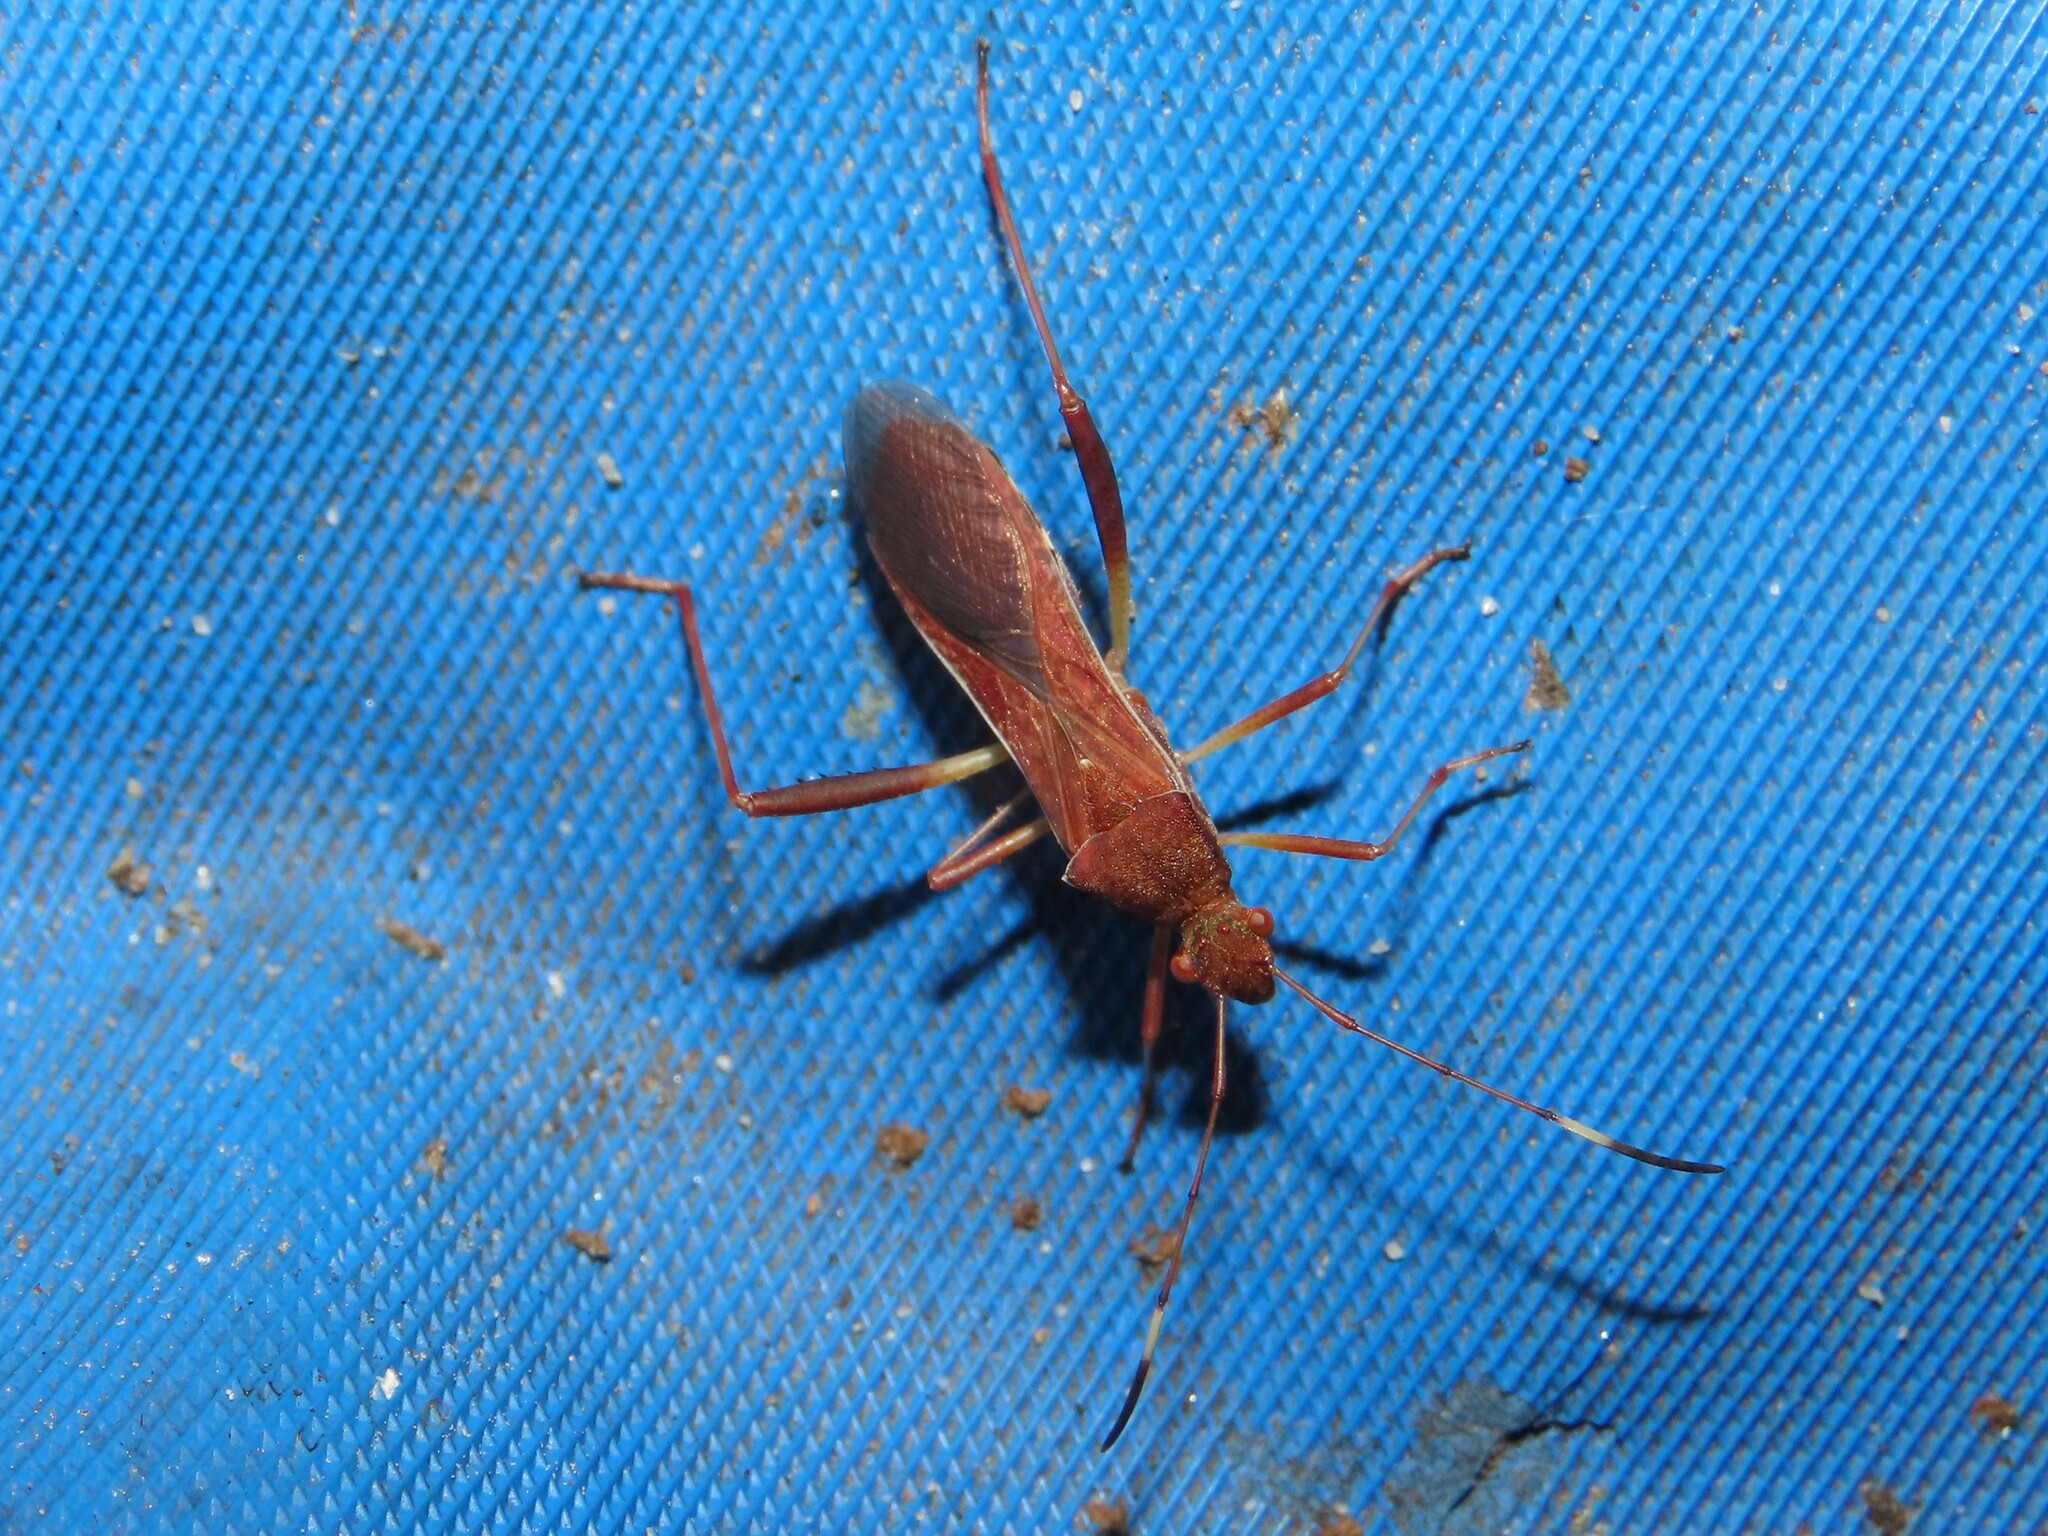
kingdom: Animalia
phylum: Arthropoda
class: Insecta
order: Hemiptera
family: Alydidae
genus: Megalotomus
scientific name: Megalotomus quinquespinosus
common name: Lupine bug
